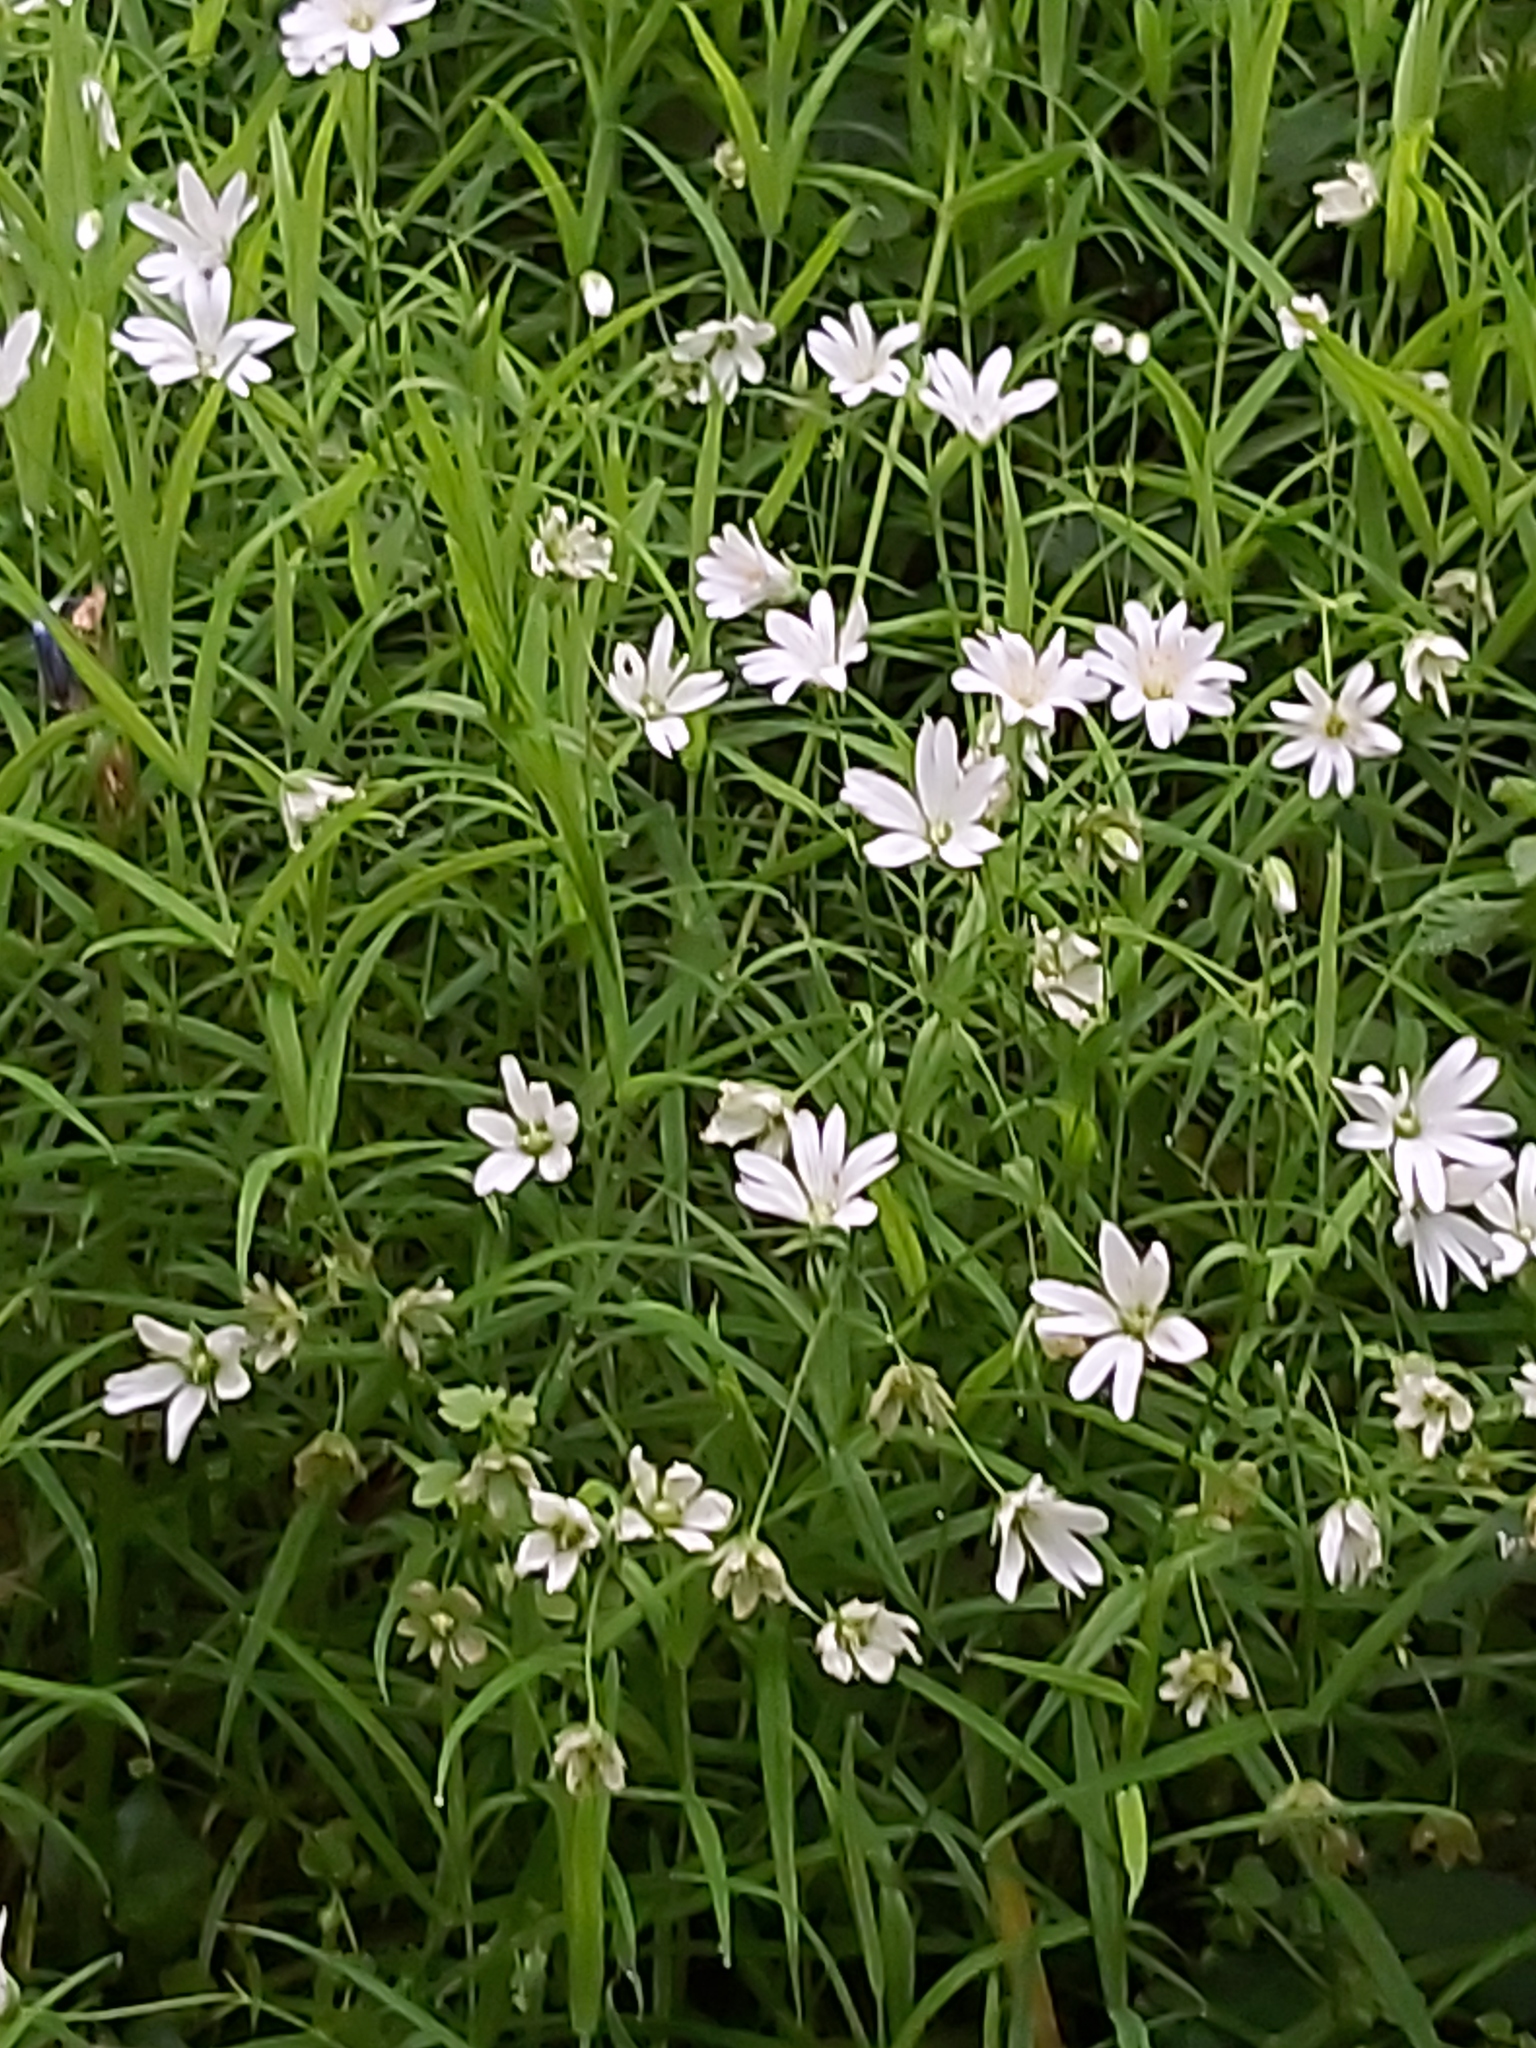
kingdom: Plantae
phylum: Tracheophyta
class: Magnoliopsida
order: Caryophyllales
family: Caryophyllaceae
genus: Rabelera
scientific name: Rabelera holostea
